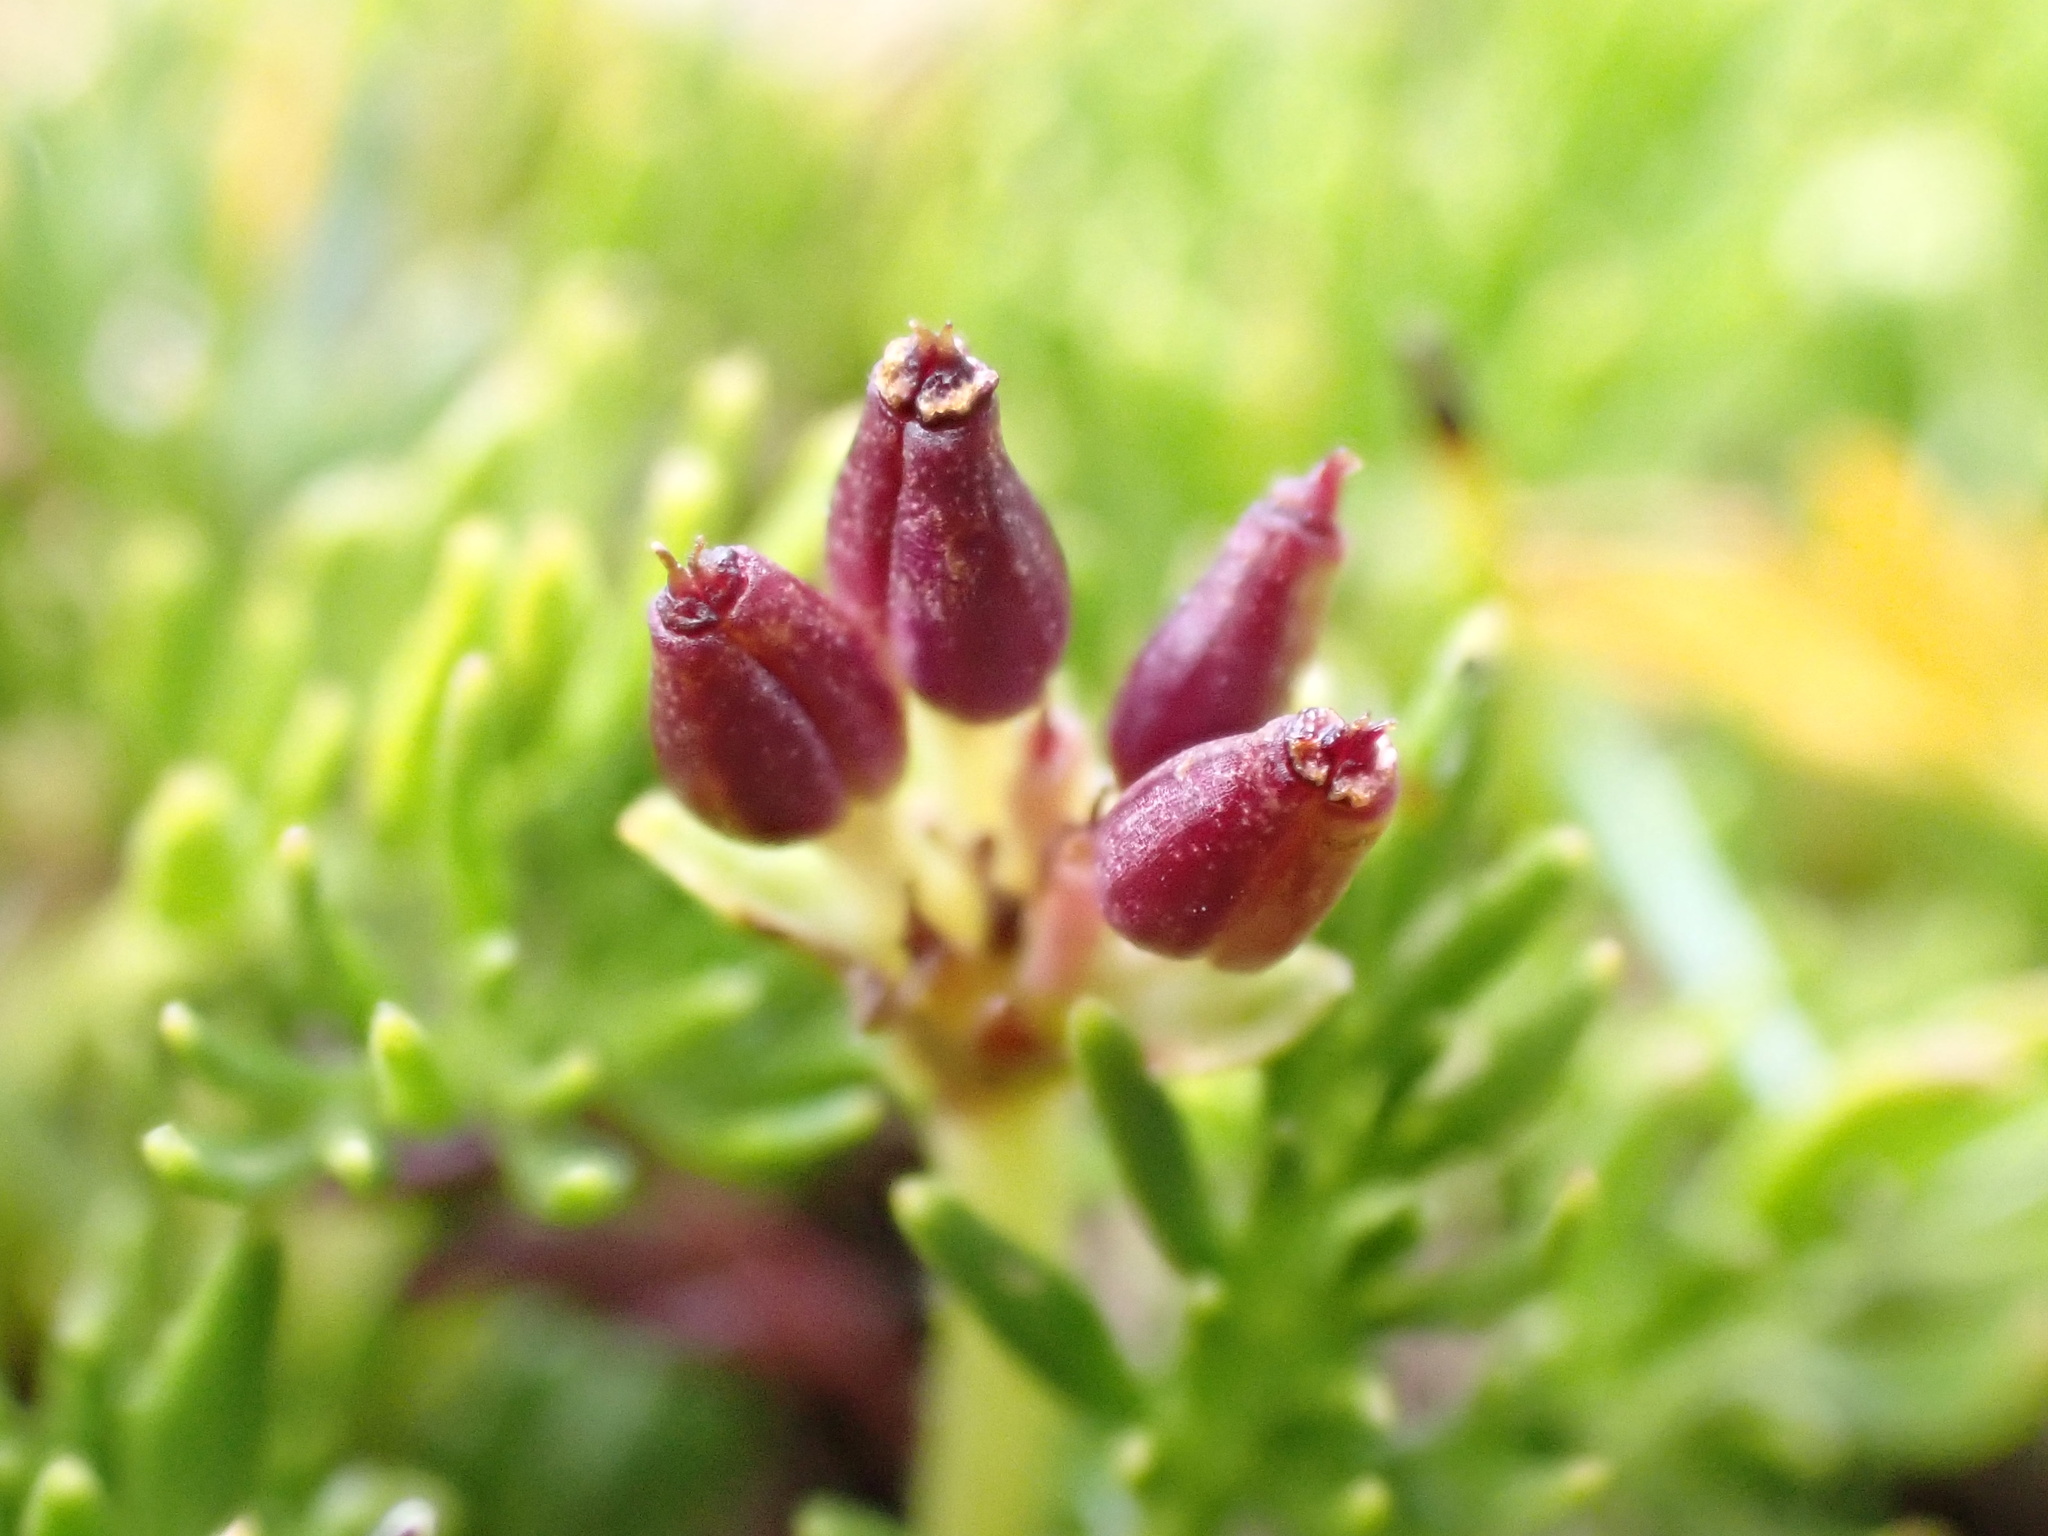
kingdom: Plantae
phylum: Tracheophyta
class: Magnoliopsida
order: Apiales
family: Apiaceae
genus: Chaerophyllum
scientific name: Chaerophyllum pulvinificum
